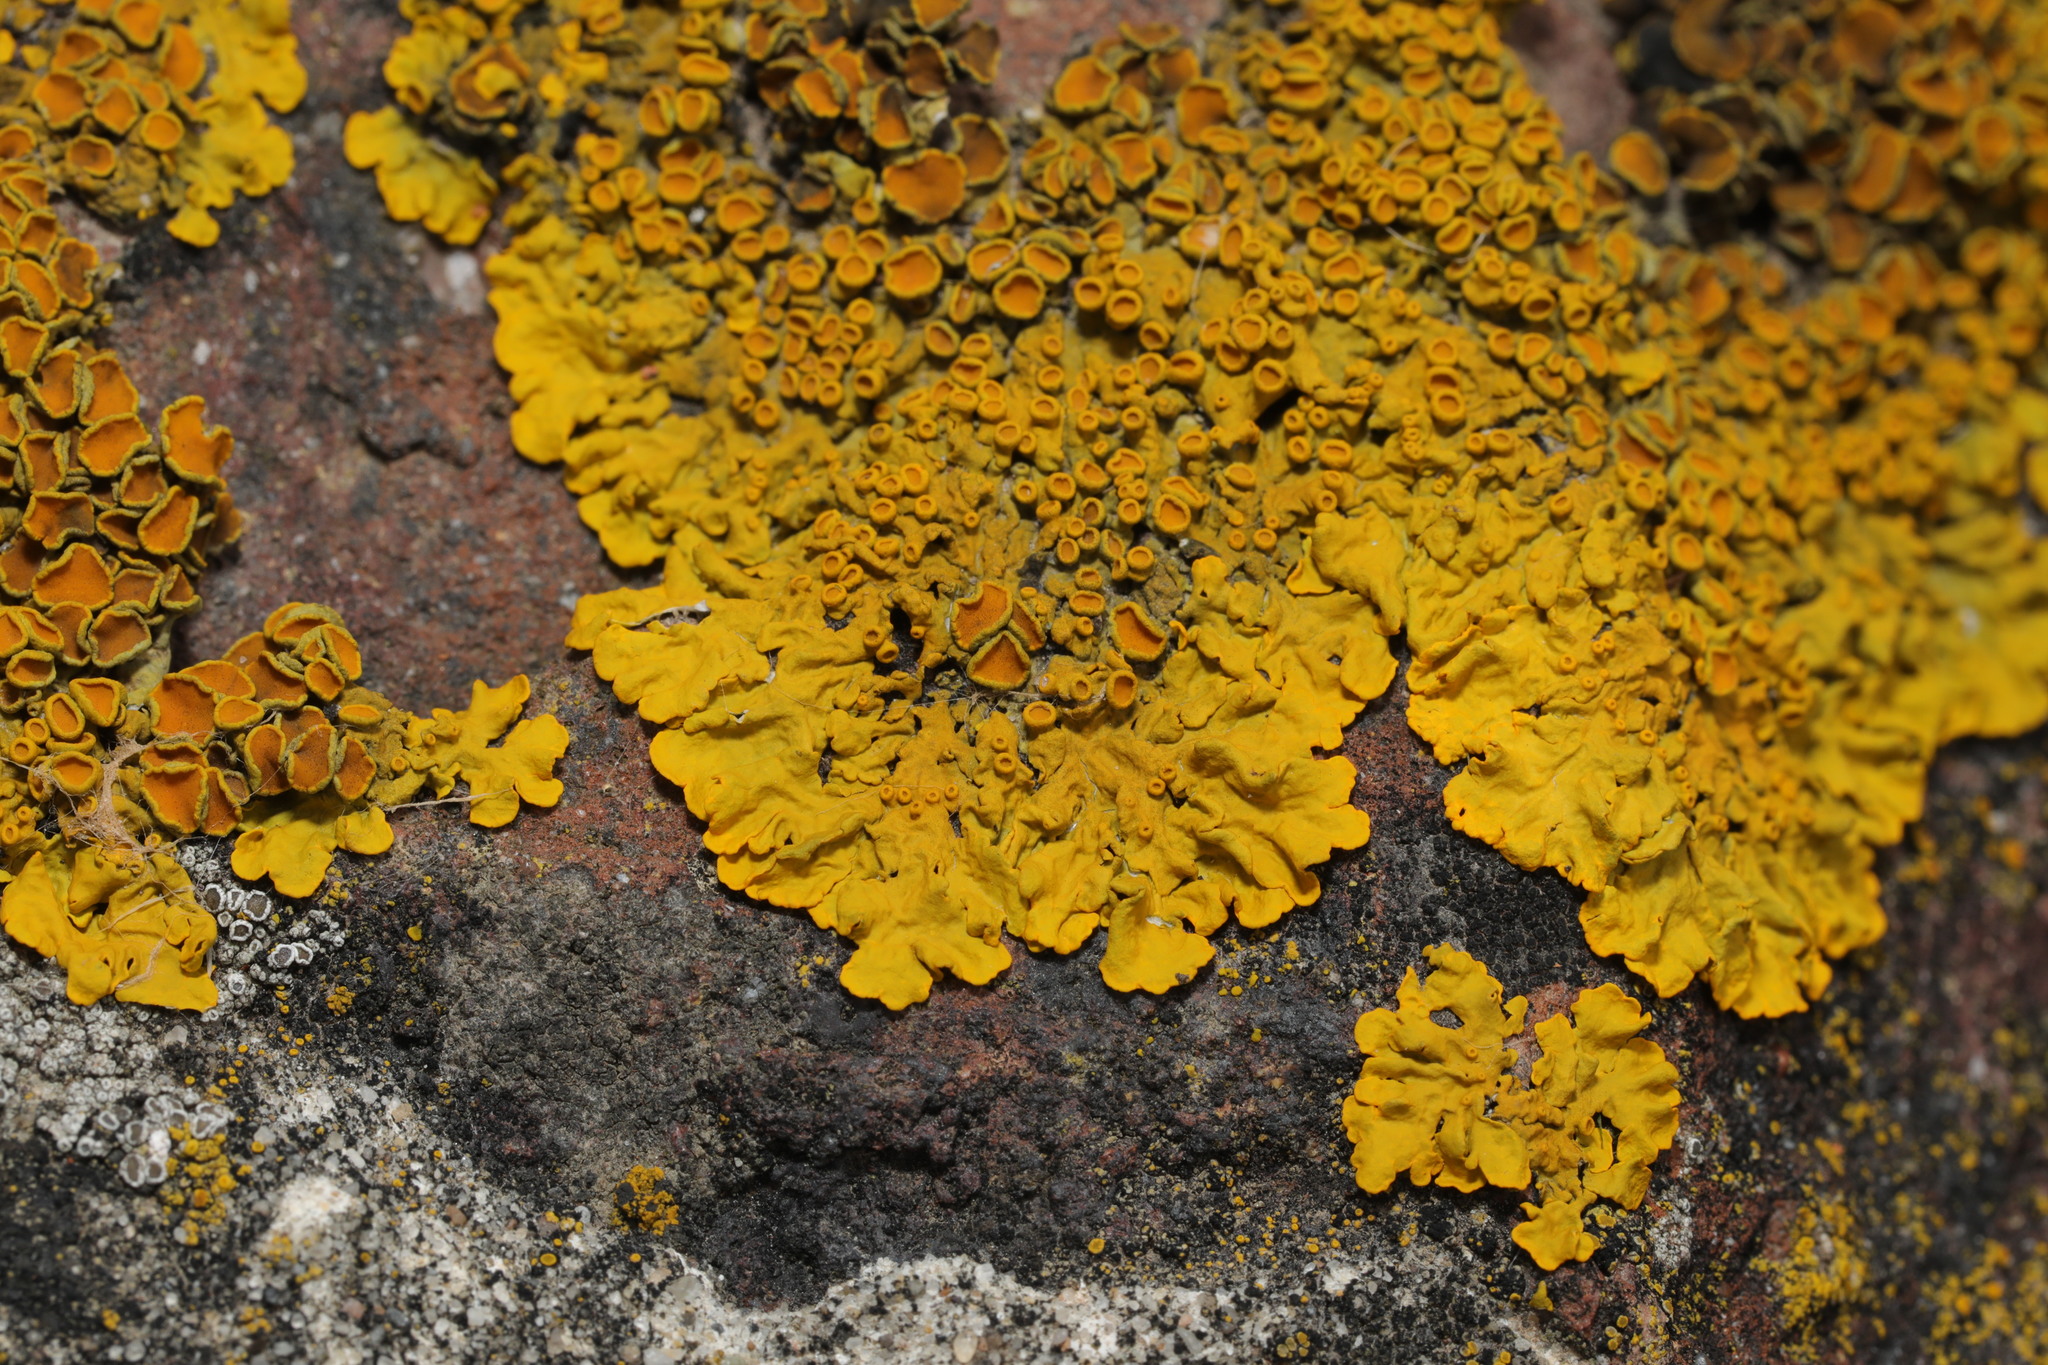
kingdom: Fungi
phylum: Ascomycota
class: Lecanoromycetes
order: Teloschistales
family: Teloschistaceae
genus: Xanthoria
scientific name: Xanthoria parietina
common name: Common orange lichen
